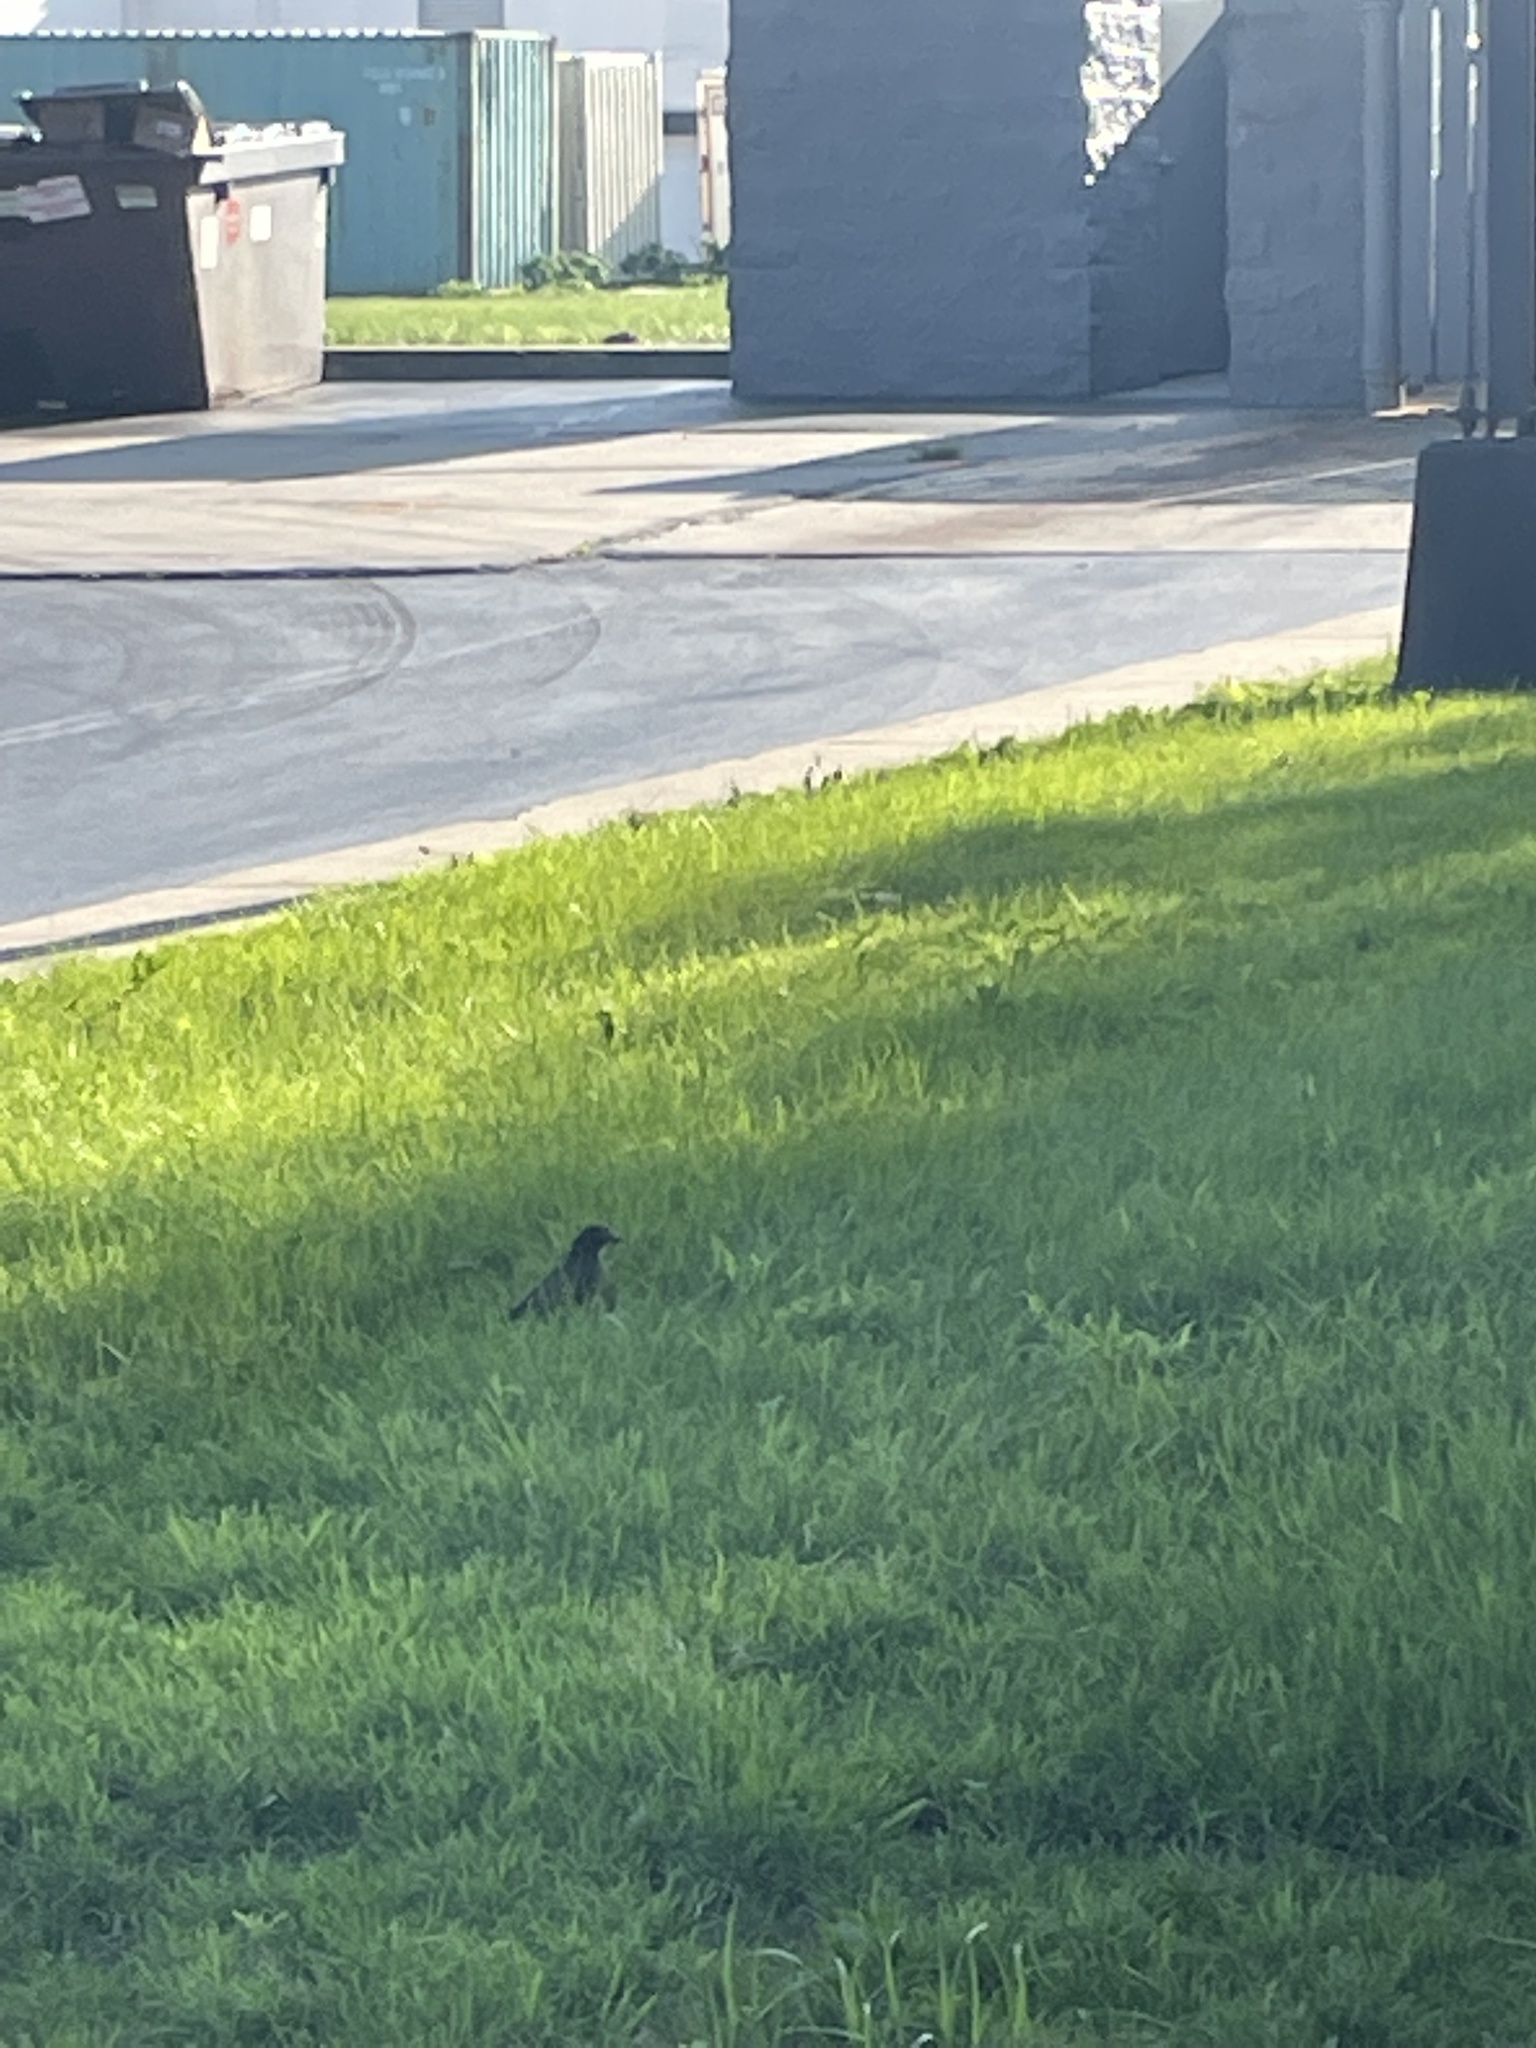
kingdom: Animalia
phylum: Chordata
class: Aves
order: Passeriformes
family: Turdidae
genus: Turdus
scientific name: Turdus migratorius
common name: American robin
